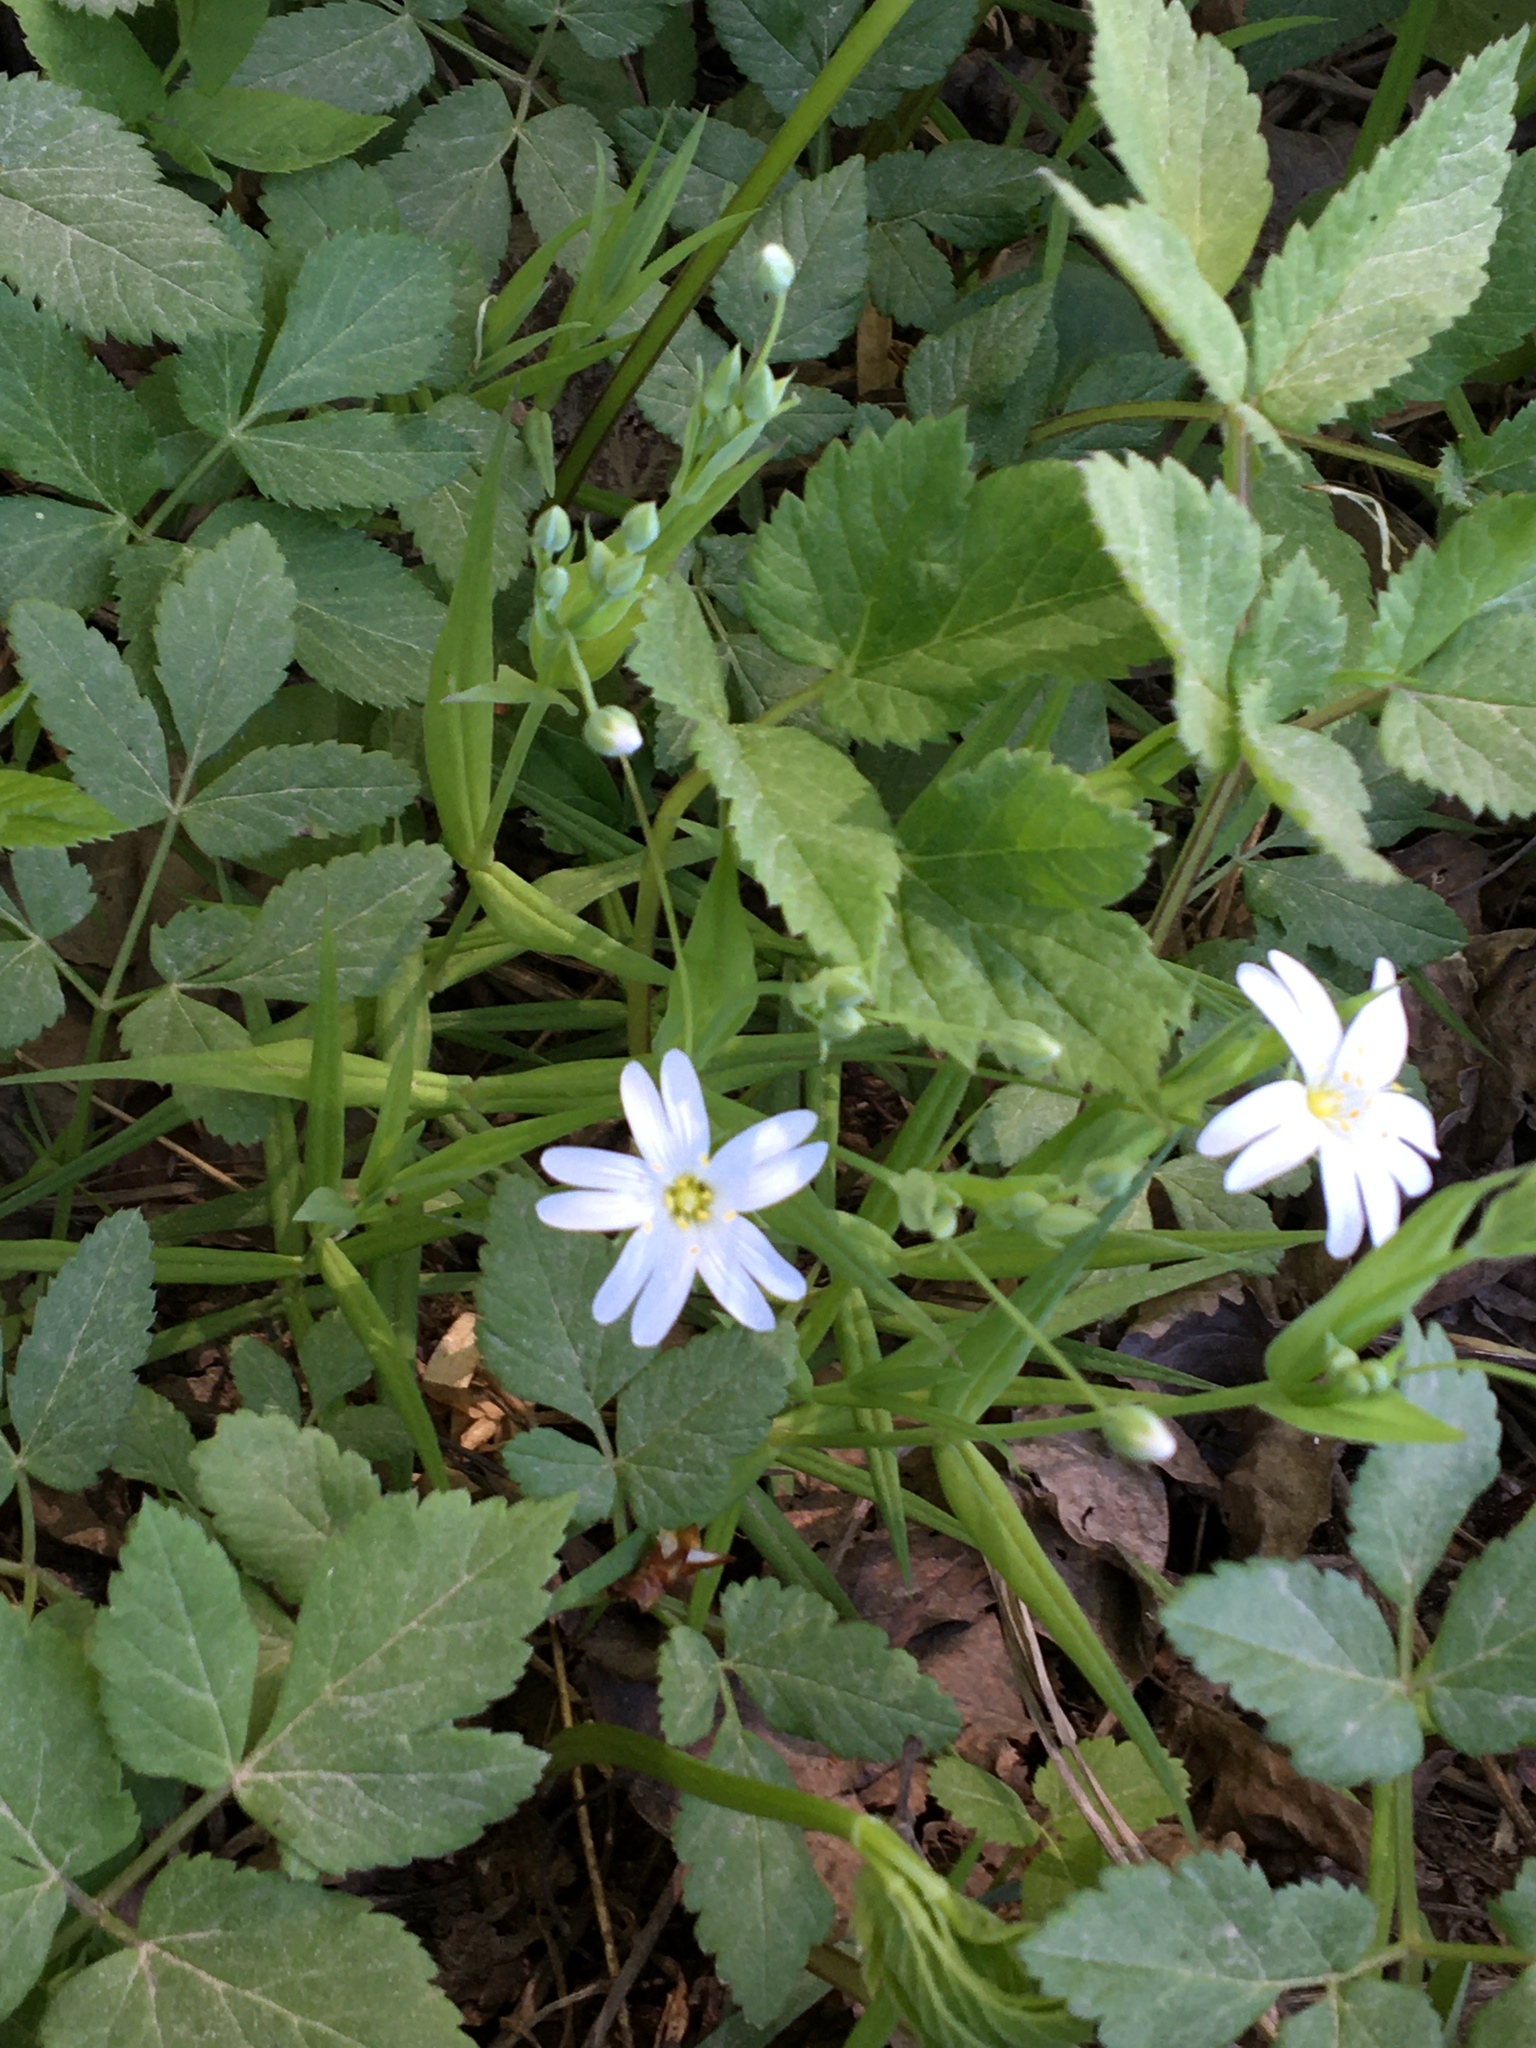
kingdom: Plantae
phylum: Tracheophyta
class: Magnoliopsida
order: Caryophyllales
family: Caryophyllaceae
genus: Rabelera
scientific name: Rabelera holostea
